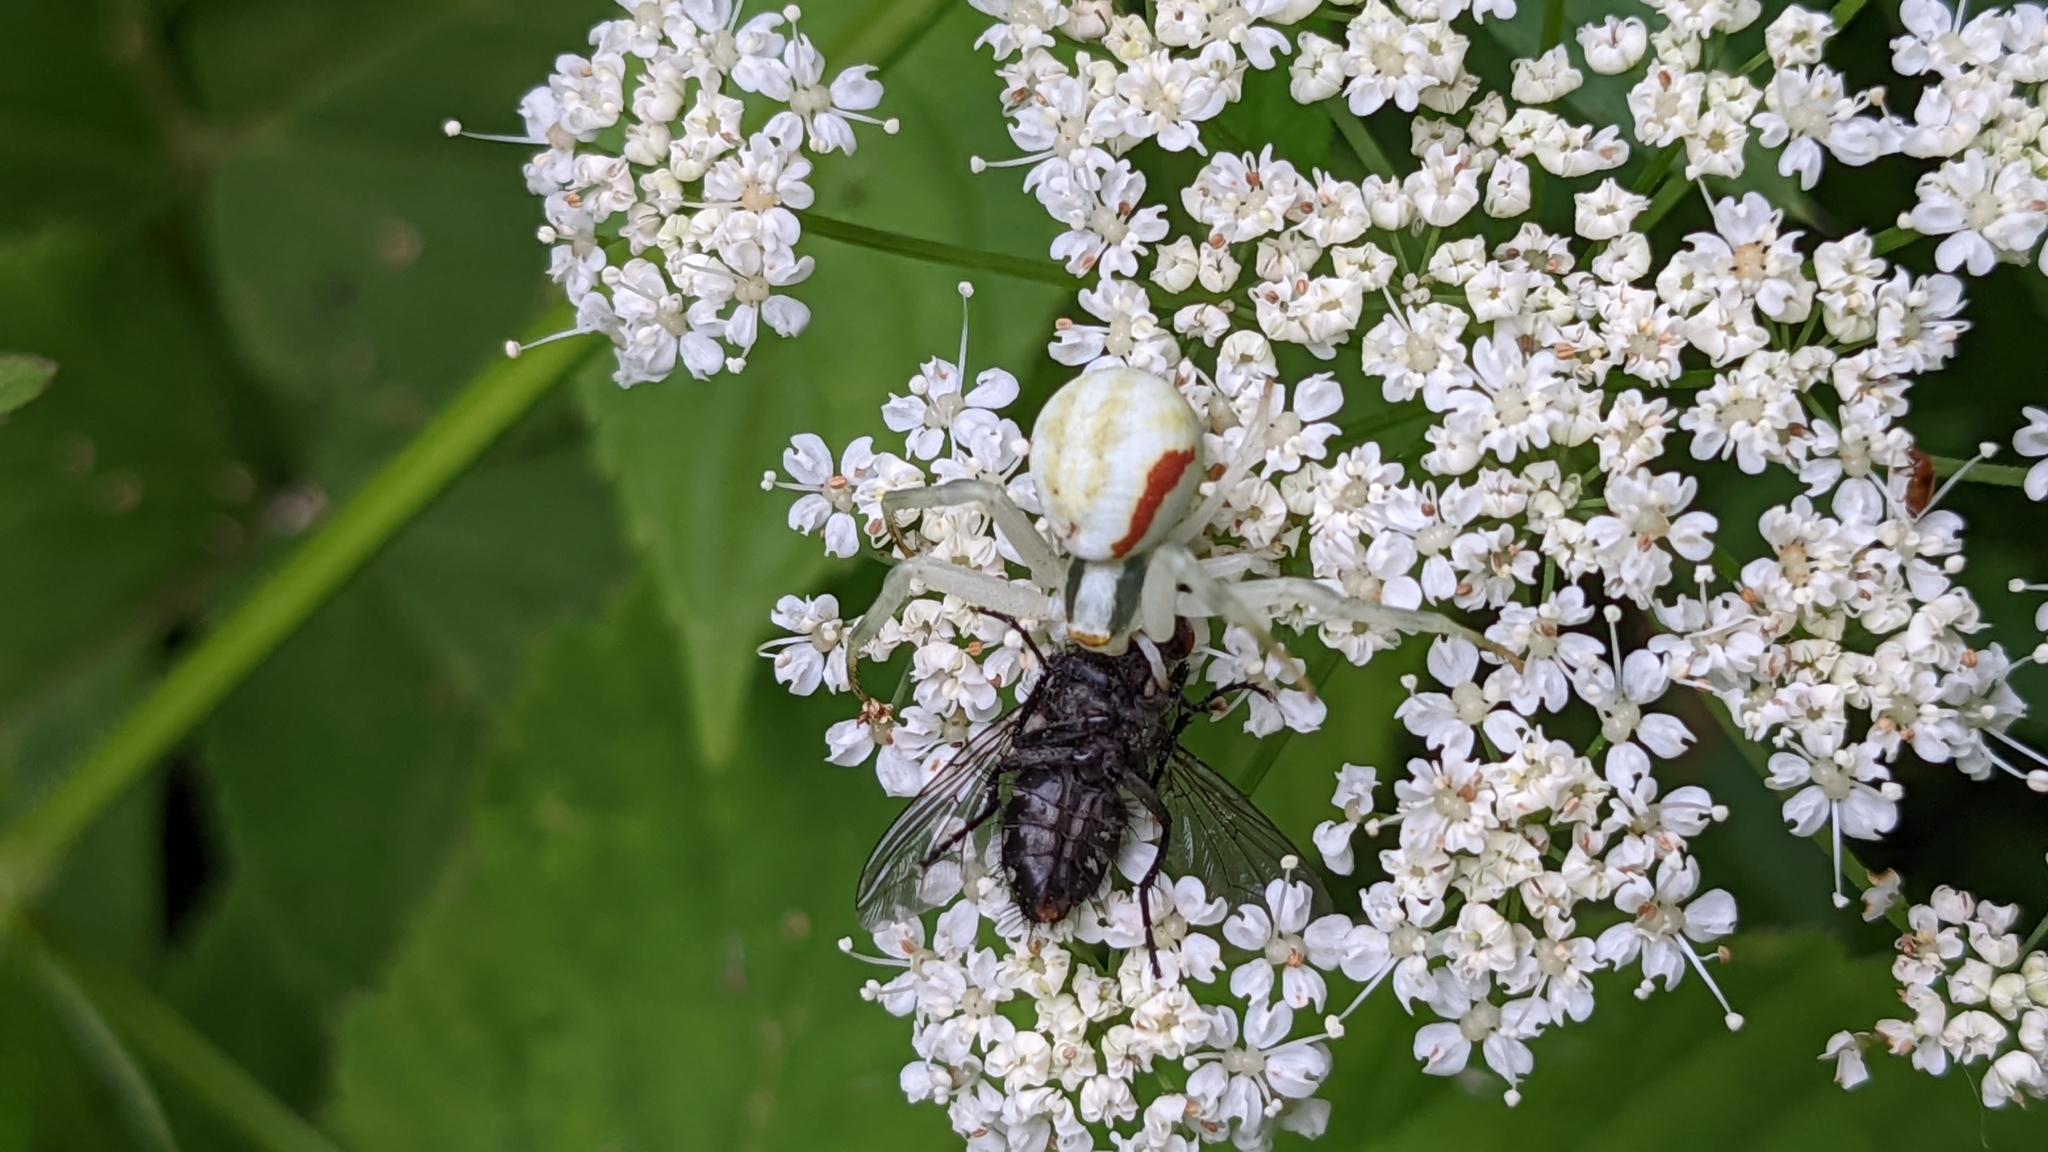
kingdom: Animalia
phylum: Arthropoda
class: Arachnida
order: Araneae
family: Thomisidae
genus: Misumena
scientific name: Misumena vatia
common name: Goldenrod crab spider
